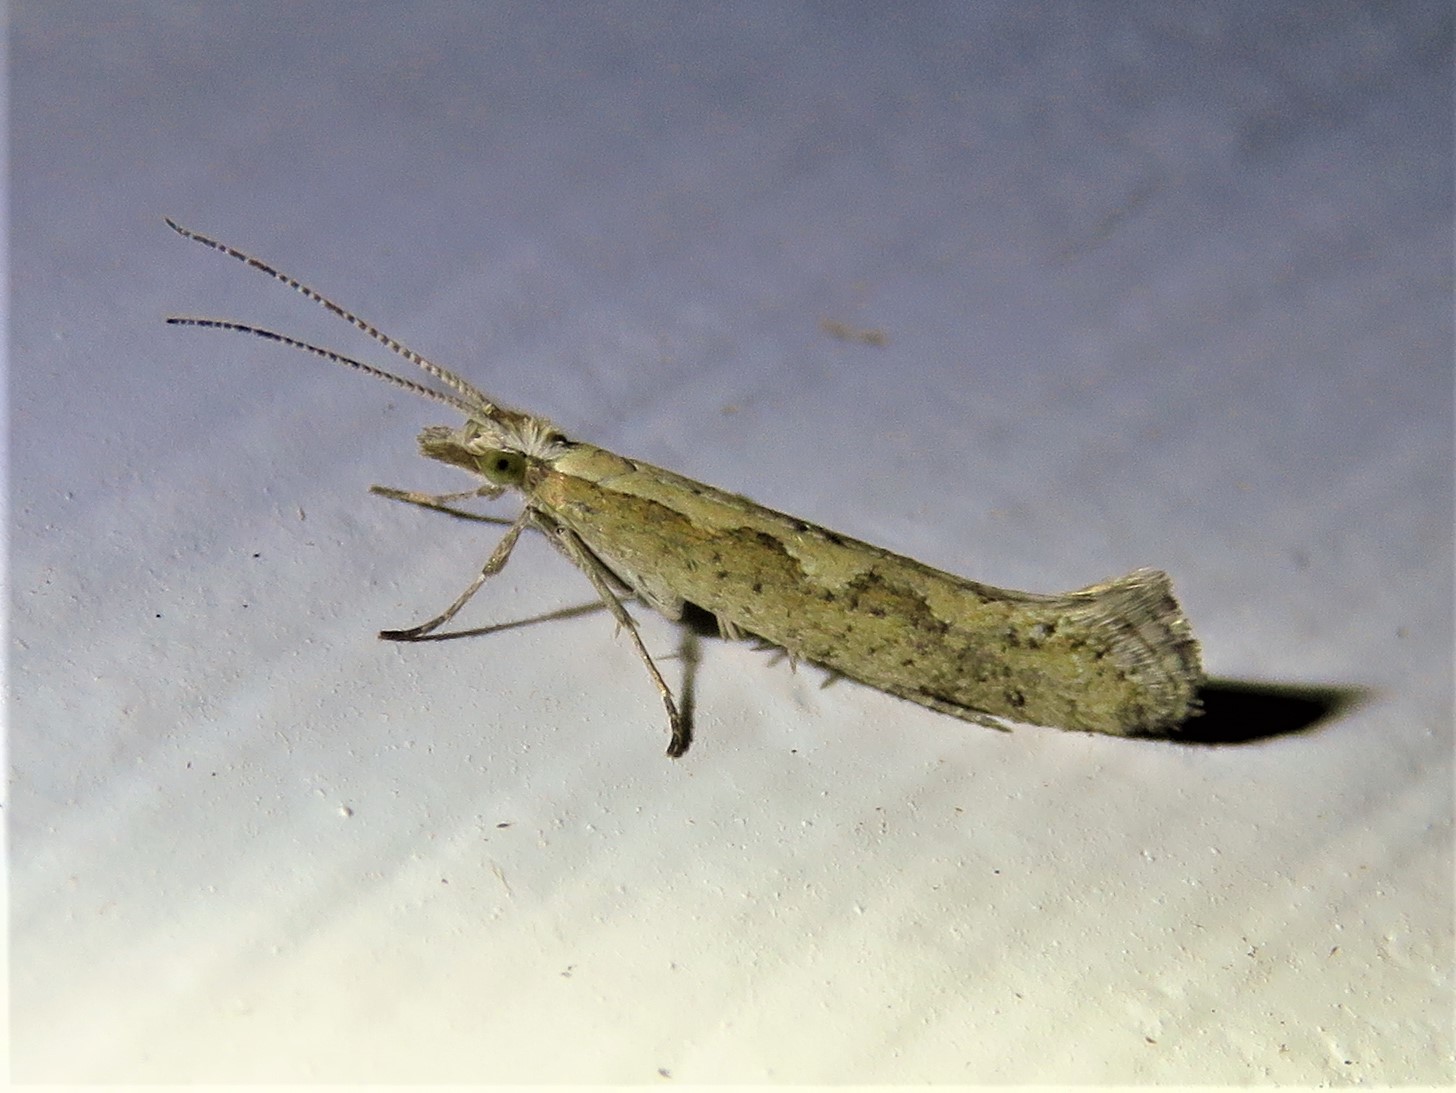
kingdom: Animalia
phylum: Arthropoda
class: Insecta
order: Lepidoptera
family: Plutellidae
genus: Plutella
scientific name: Plutella xylostella
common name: Diamond-back moth
